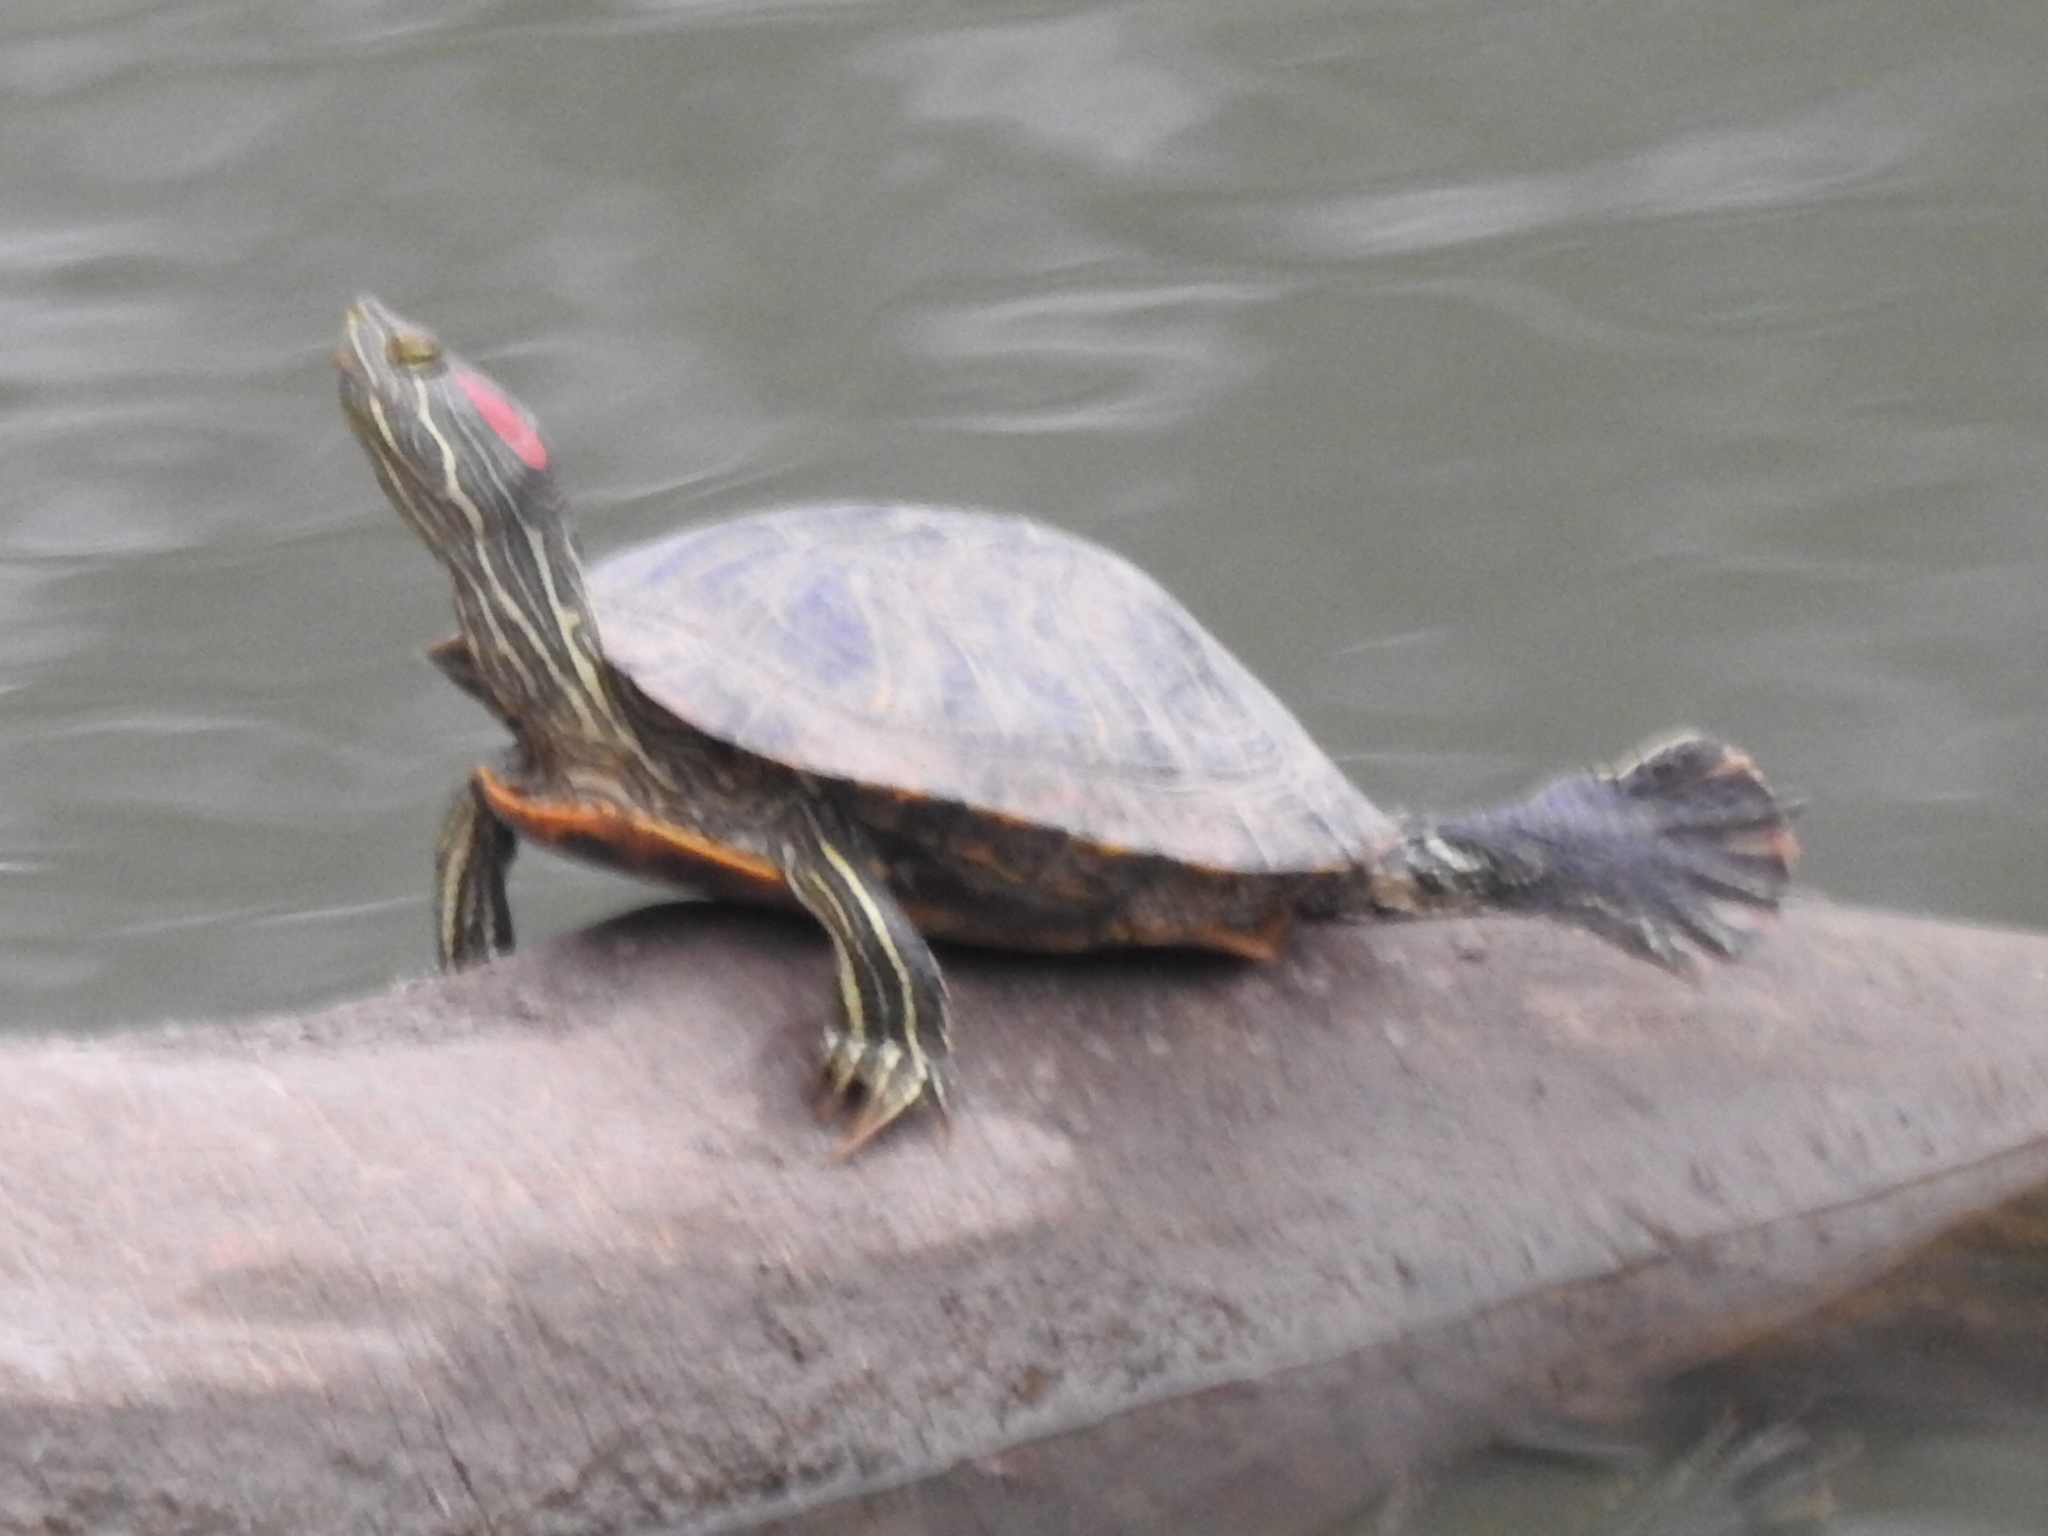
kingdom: Animalia
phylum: Chordata
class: Testudines
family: Emydidae
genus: Trachemys
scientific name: Trachemys scripta
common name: Slider
